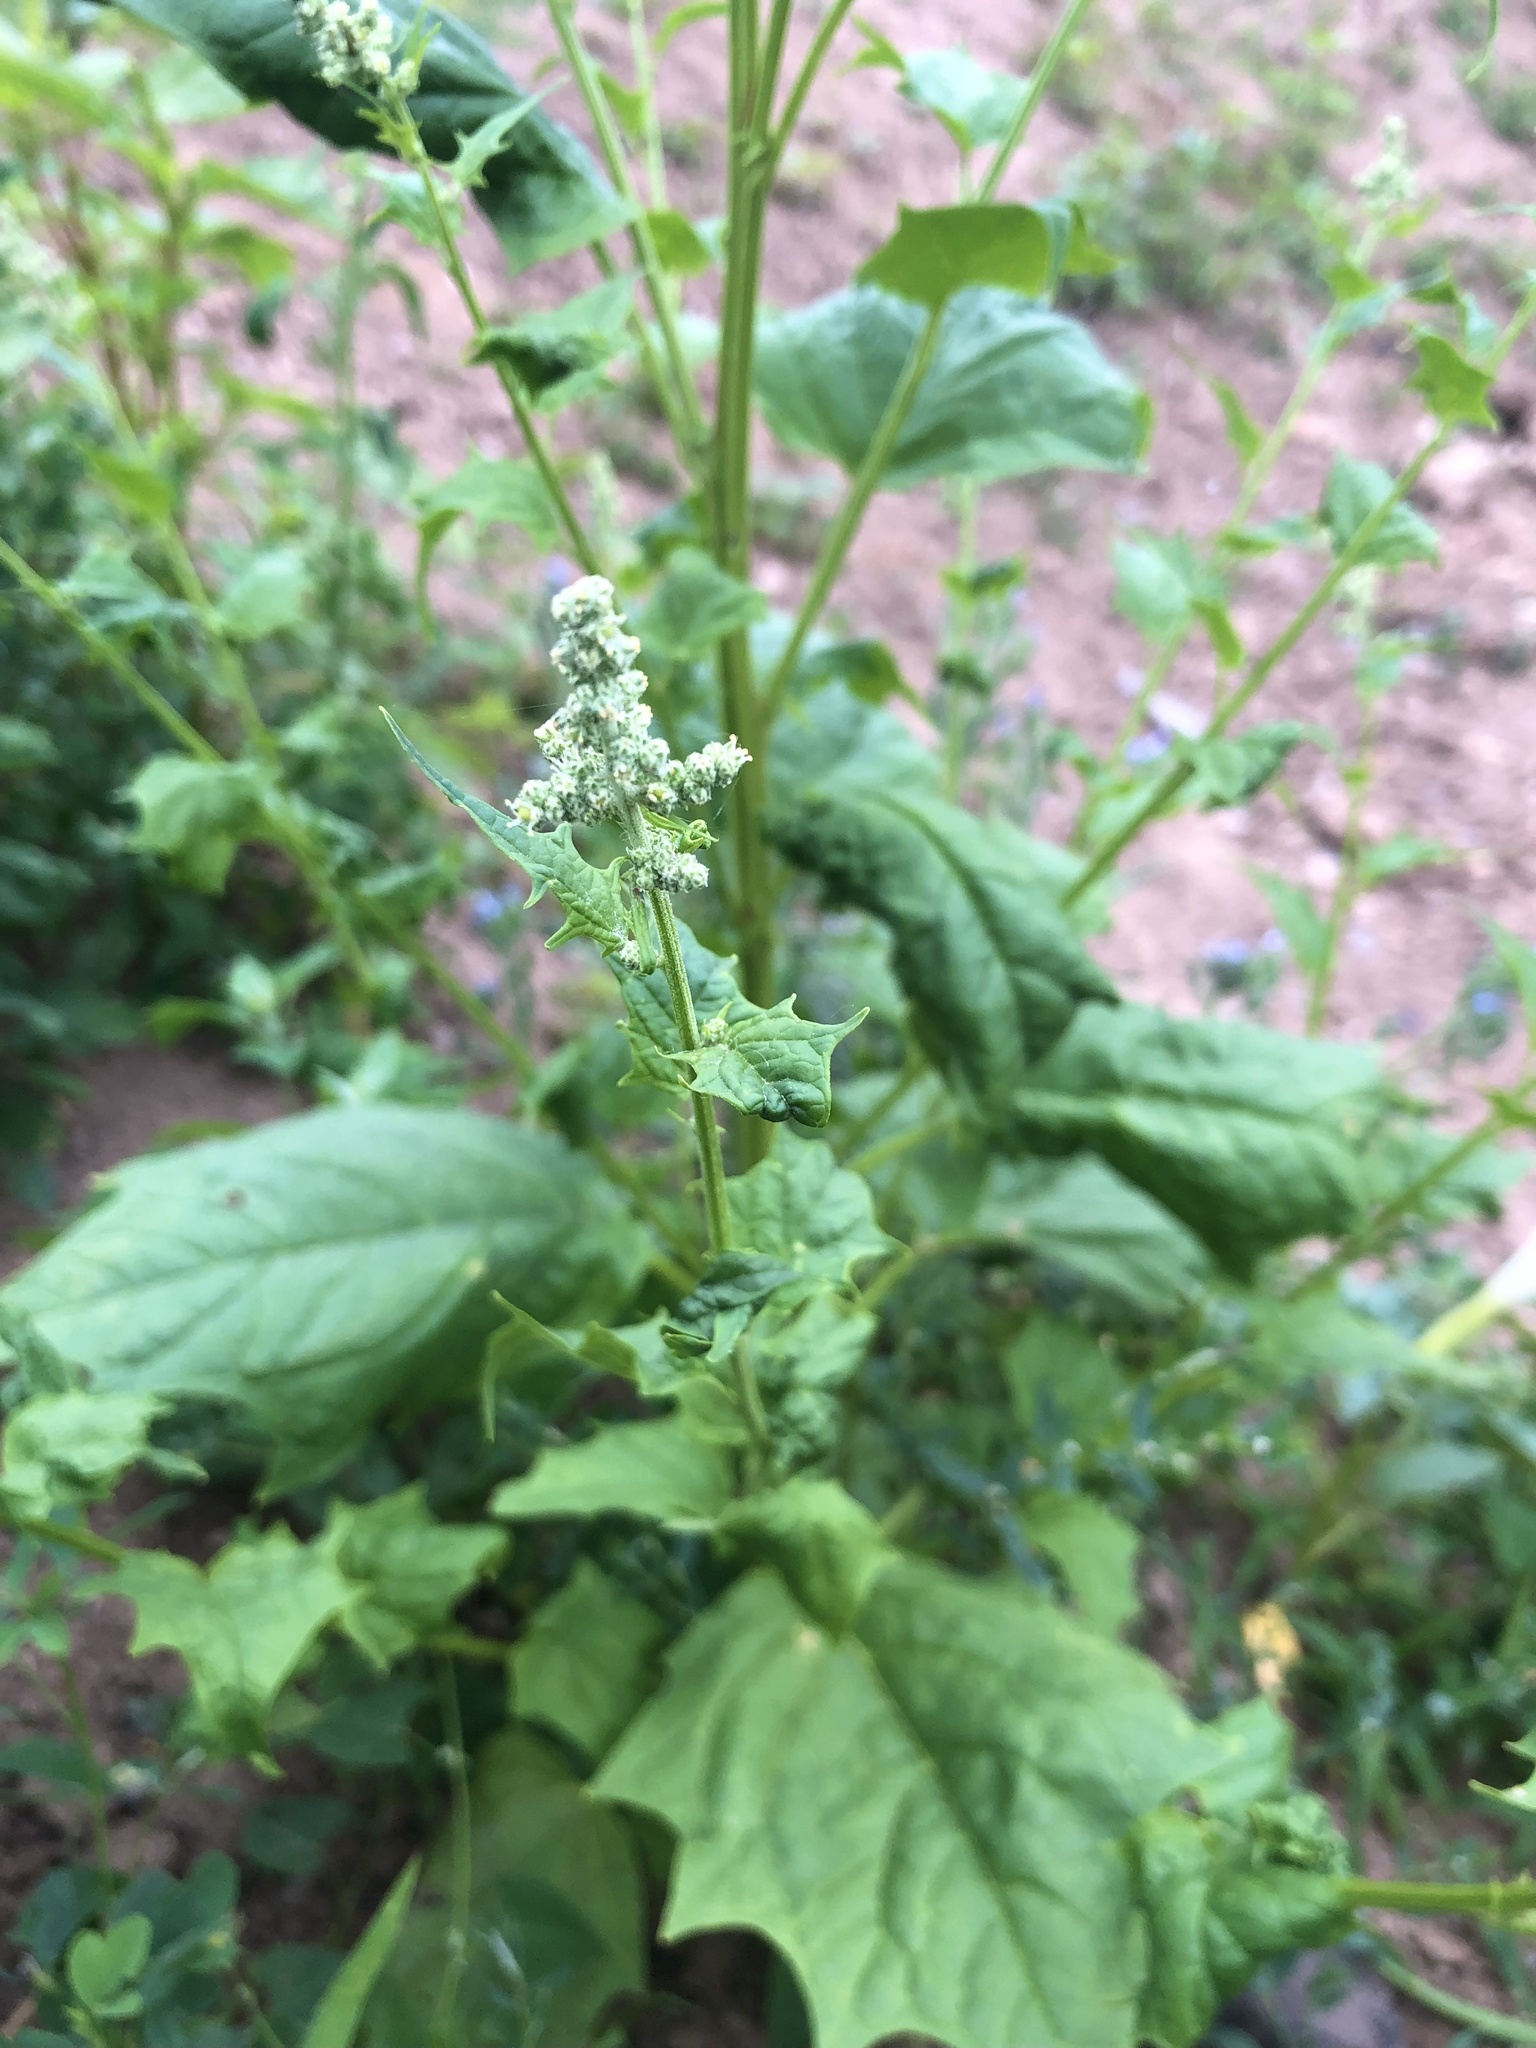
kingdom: Plantae
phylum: Tracheophyta
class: Magnoliopsida
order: Caryophyllales
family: Amaranthaceae
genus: Chenopodiastrum
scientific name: Chenopodiastrum hybridum
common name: Mapleleaf goosefoot
